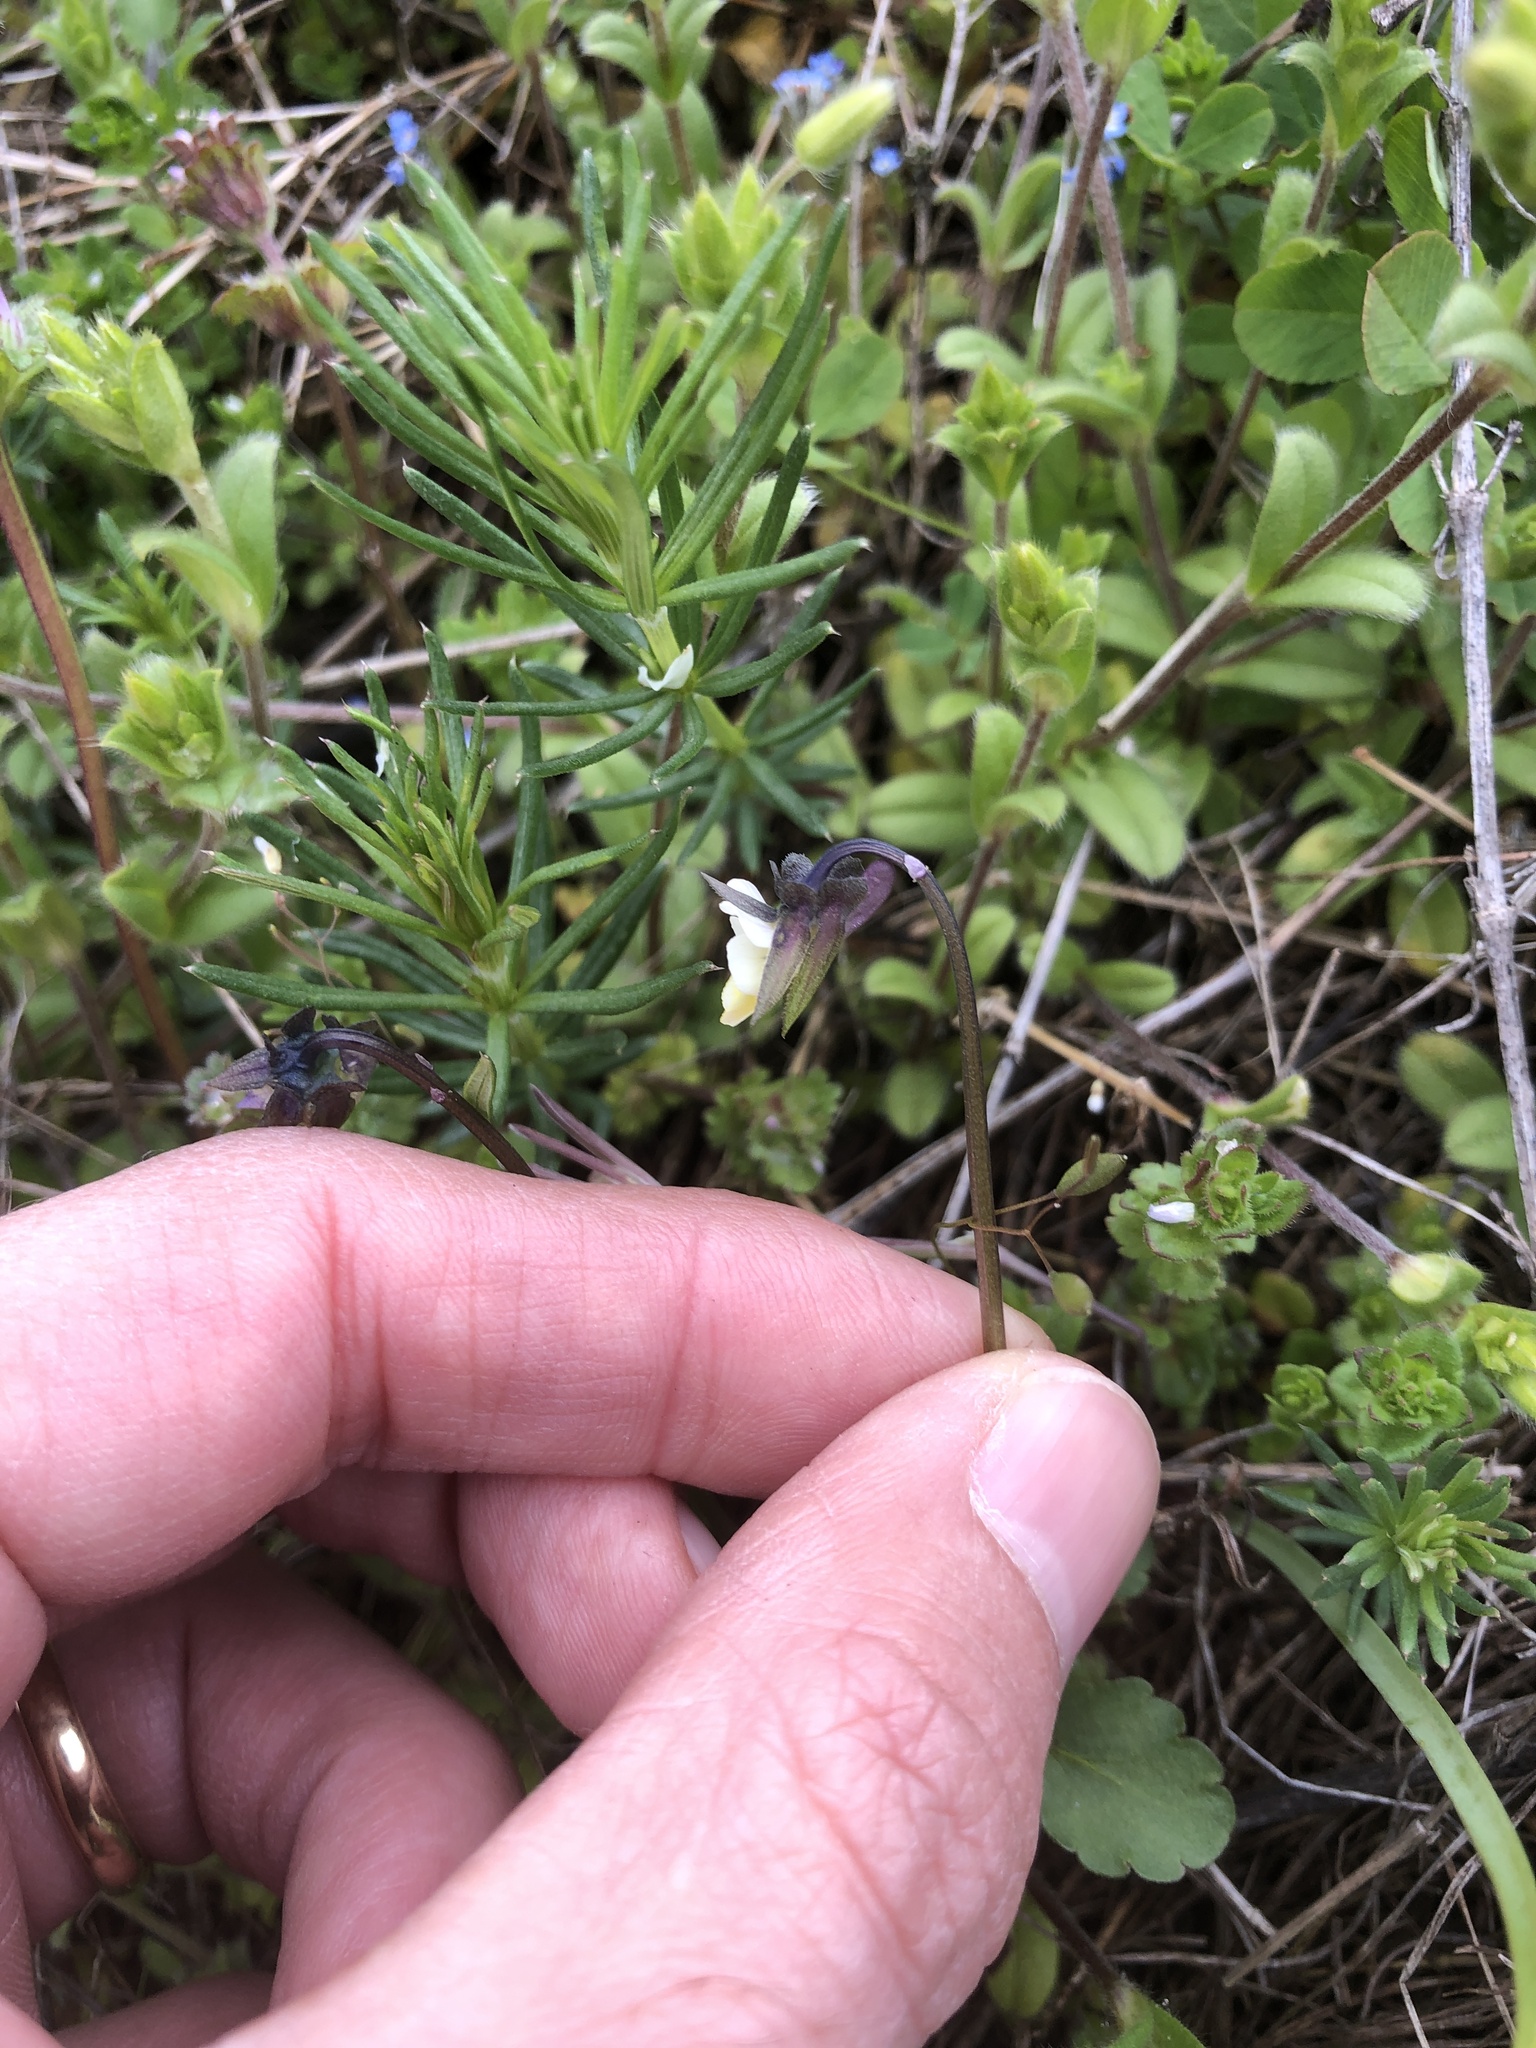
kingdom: Plantae
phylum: Tracheophyta
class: Magnoliopsida
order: Malpighiales
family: Violaceae
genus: Viola
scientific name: Viola arvensis
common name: Field pansy
